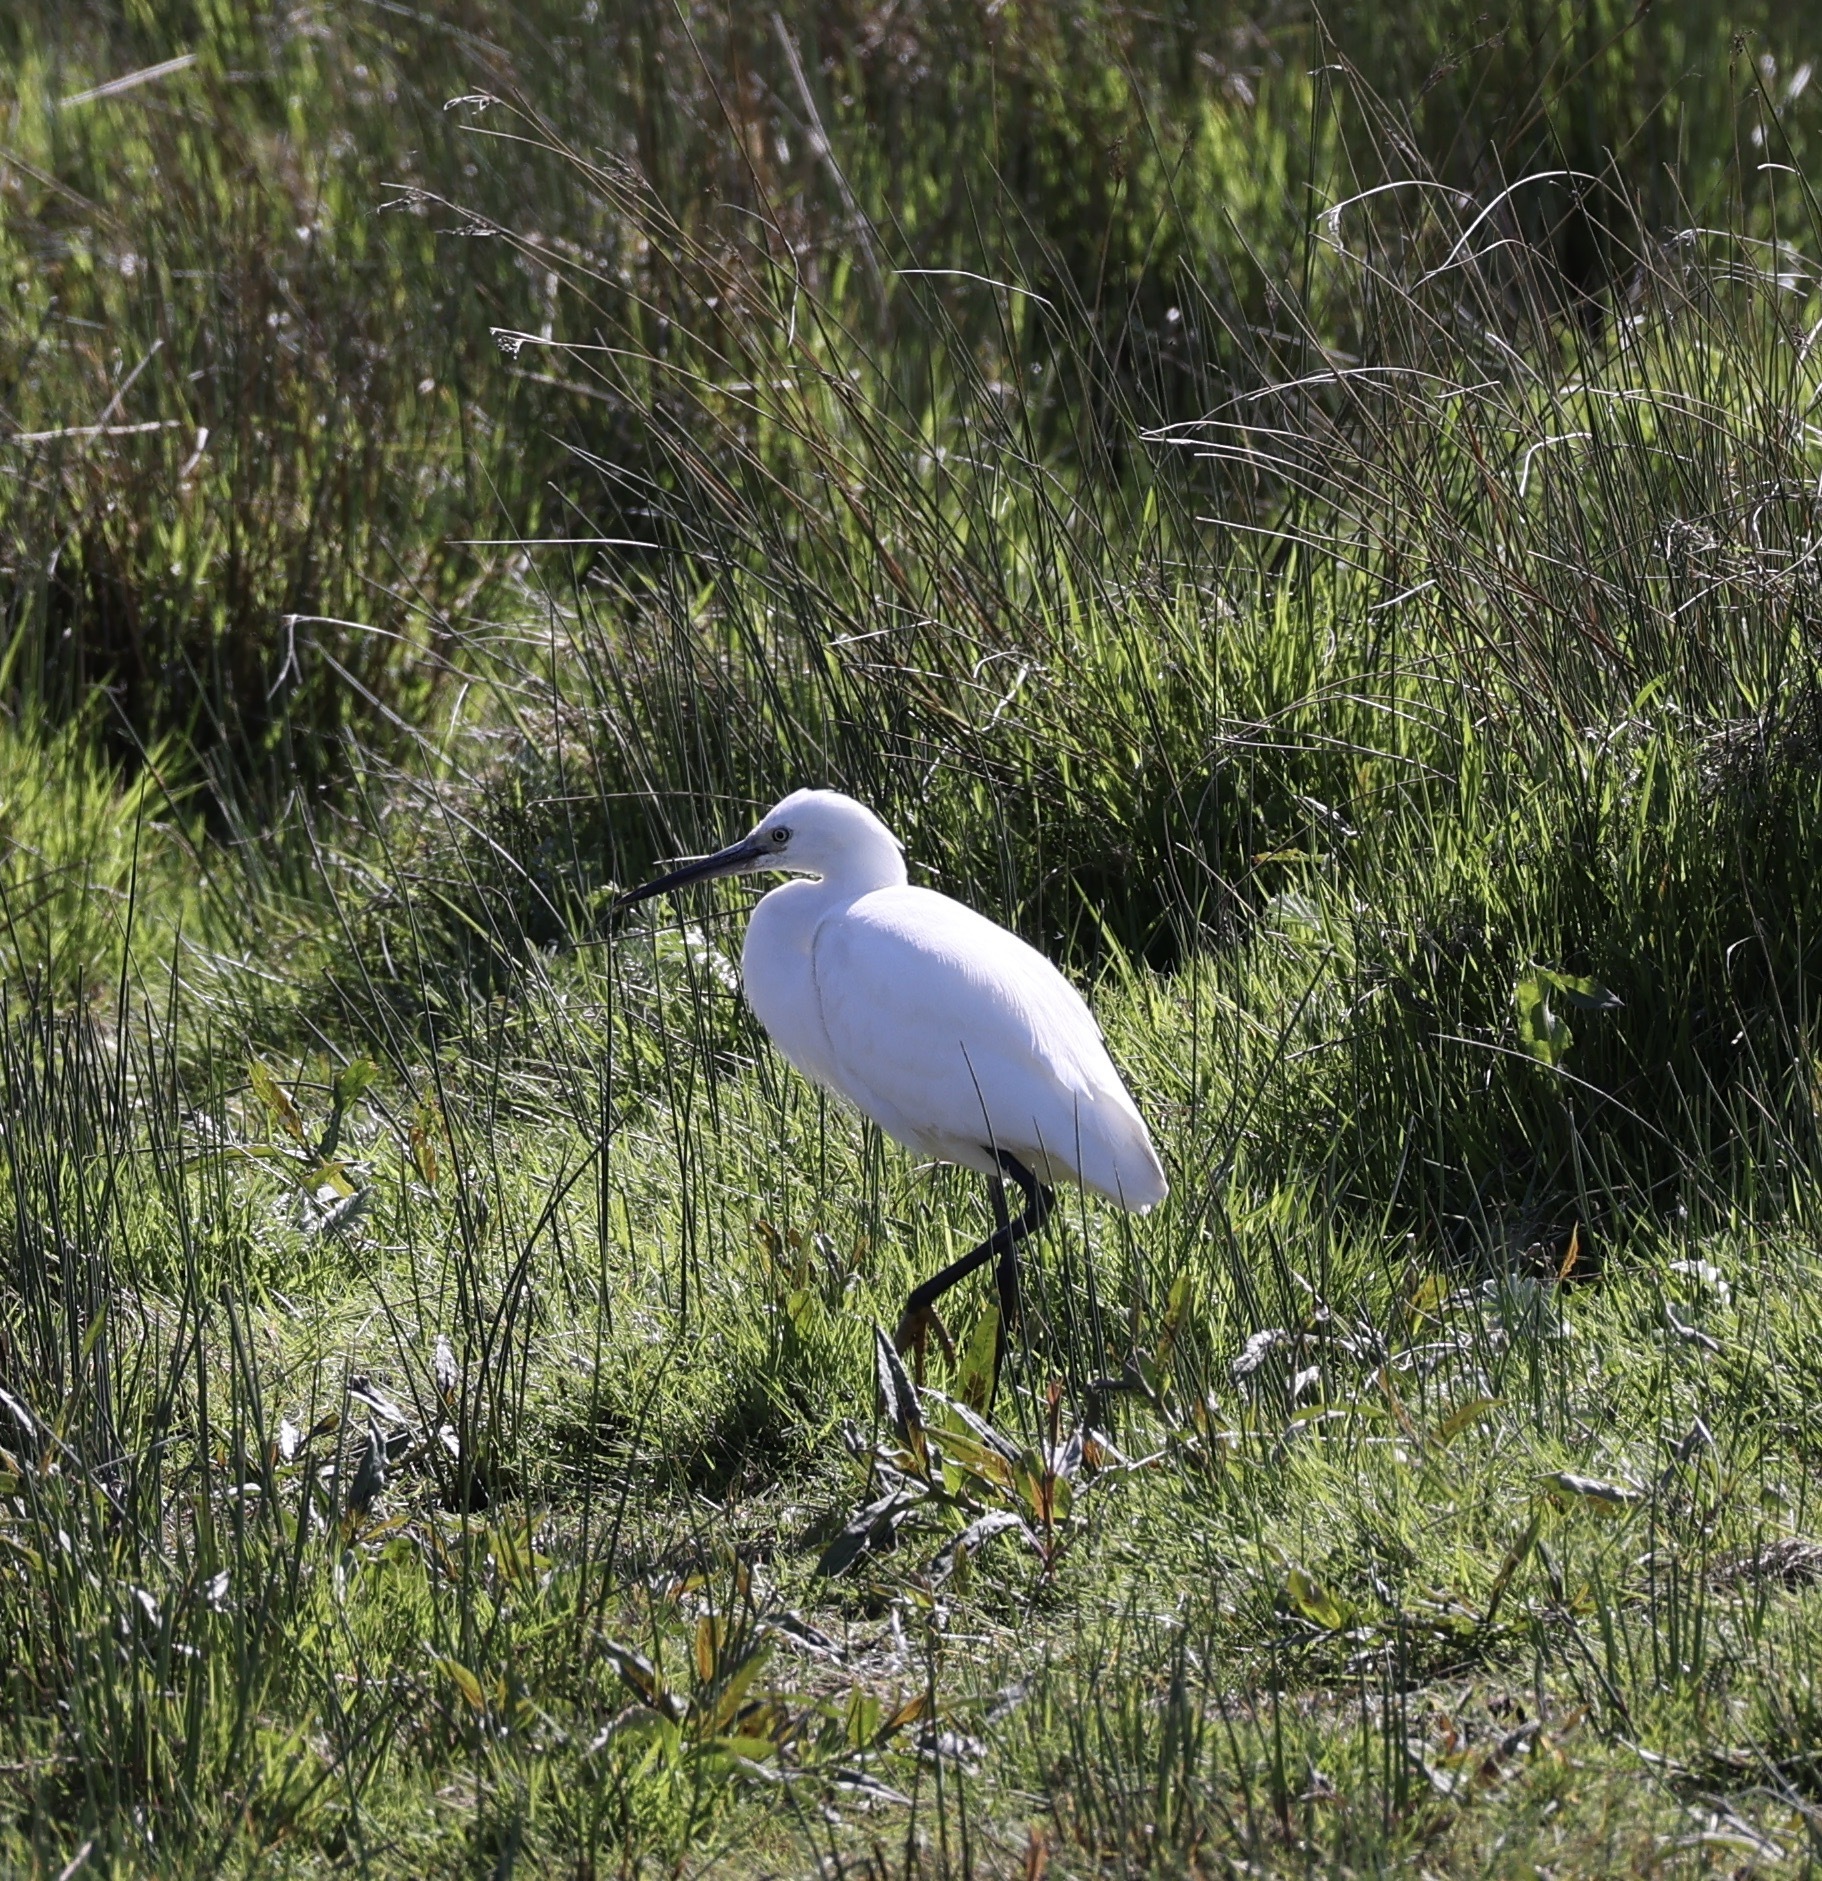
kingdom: Animalia
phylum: Chordata
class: Aves
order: Pelecaniformes
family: Ardeidae
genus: Egretta
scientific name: Egretta garzetta
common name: Little egret
